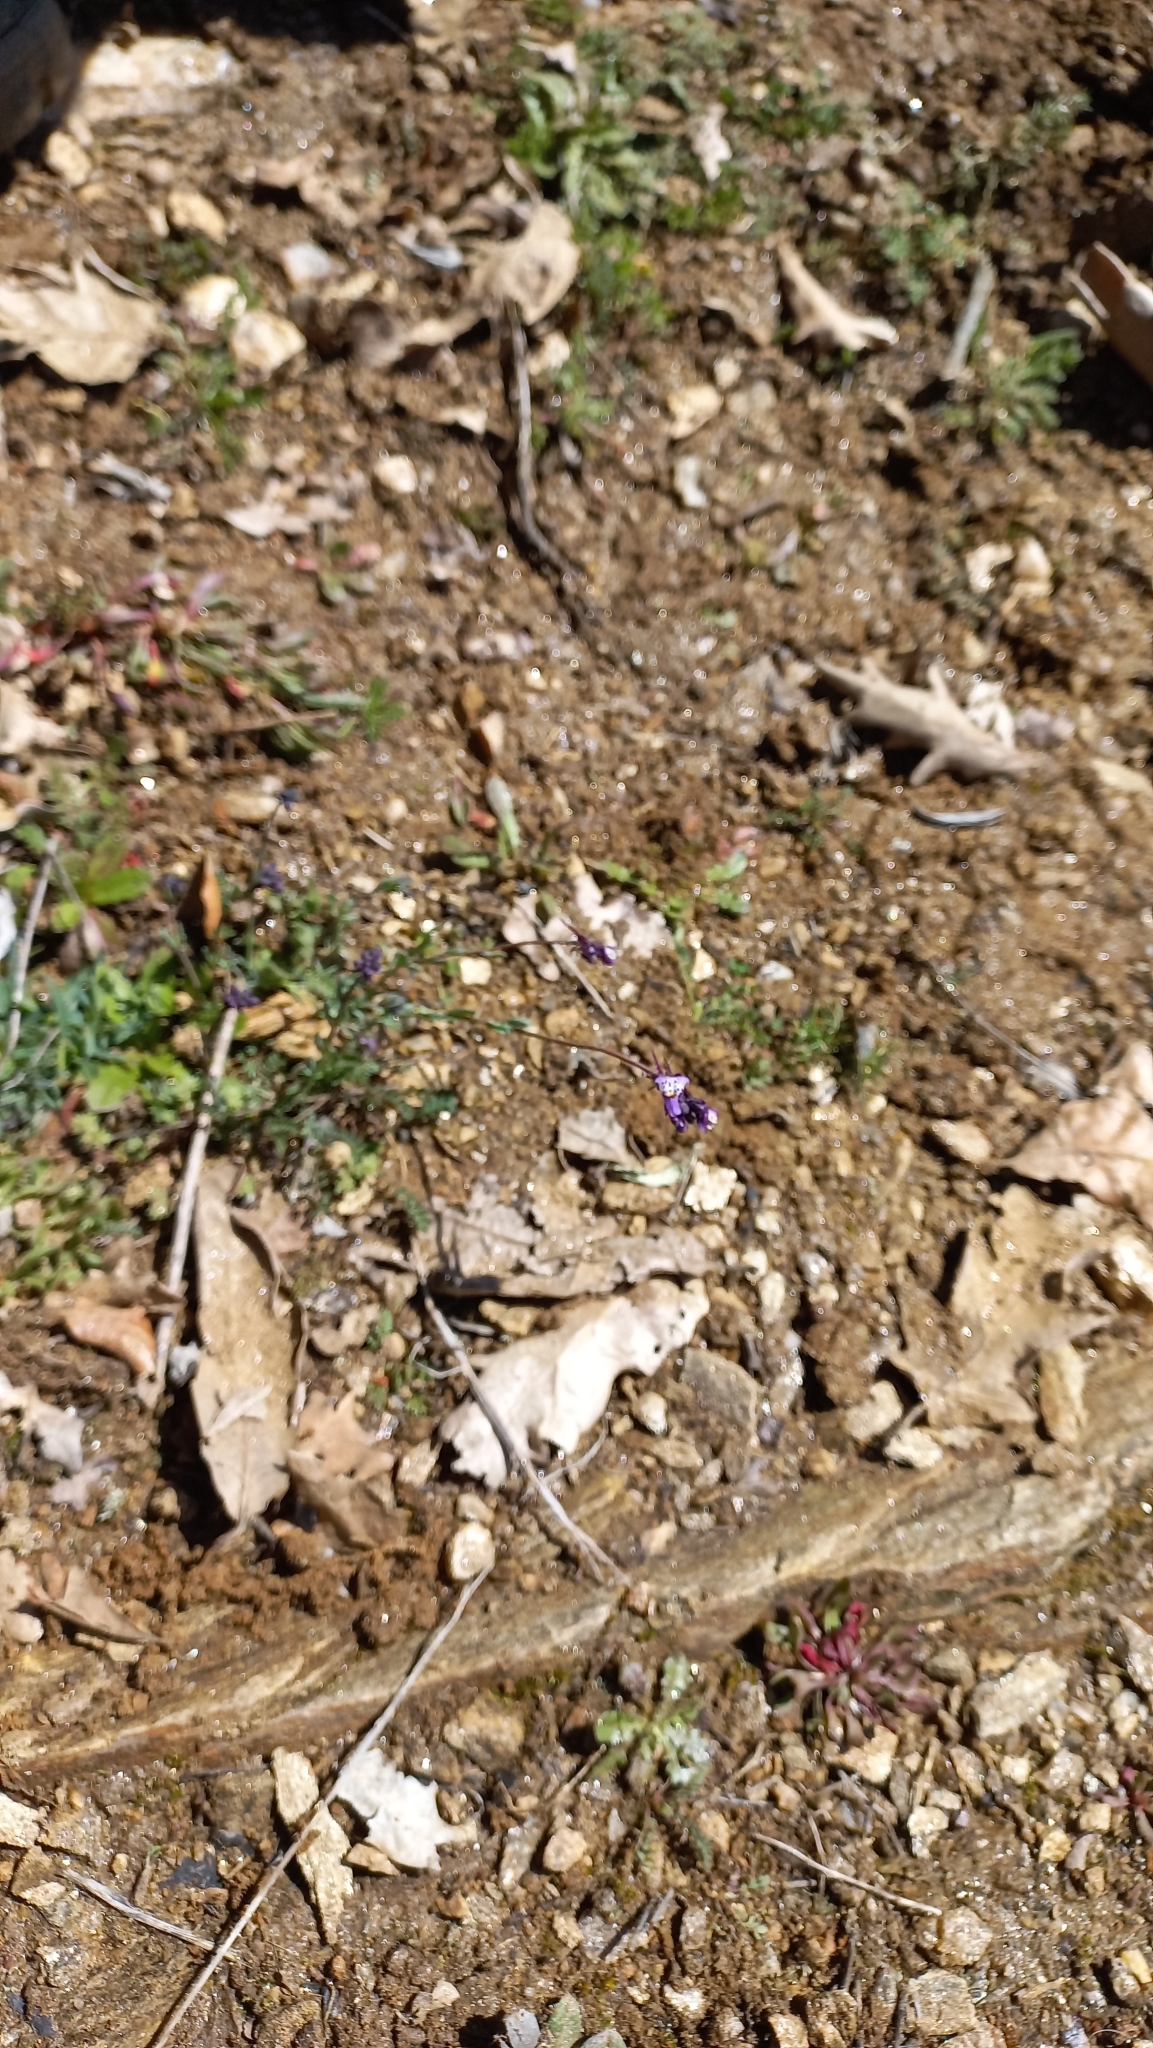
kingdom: Plantae
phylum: Tracheophyta
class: Magnoliopsida
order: Lamiales
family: Plantaginaceae
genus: Linaria
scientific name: Linaria amethystea
